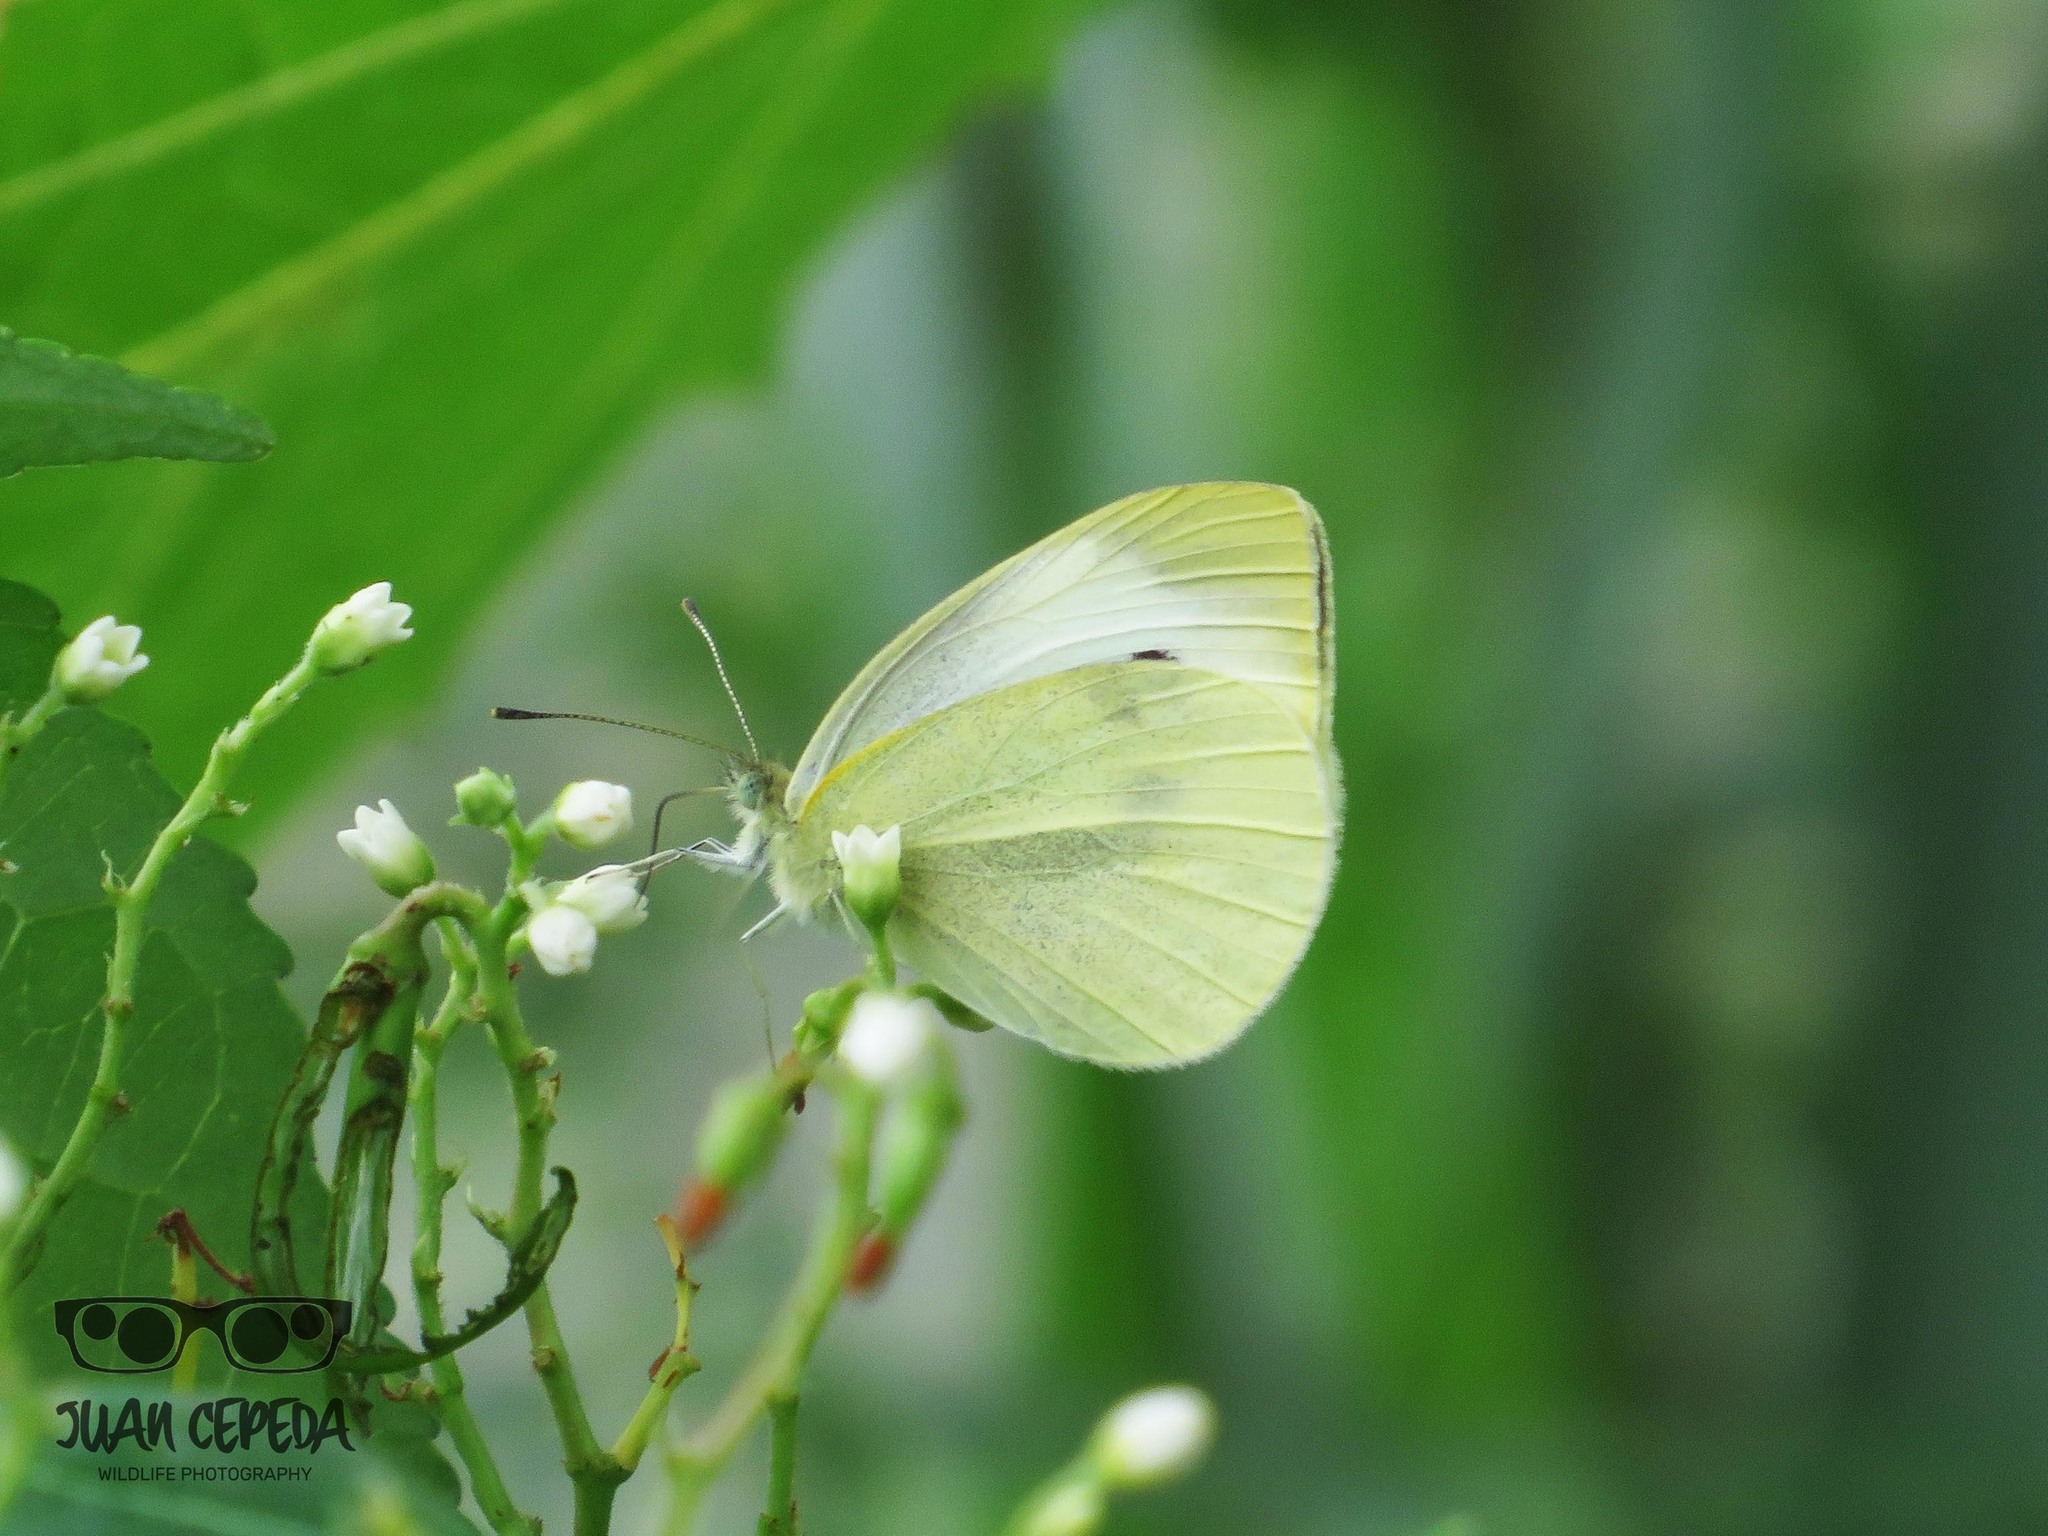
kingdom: Animalia
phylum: Arthropoda
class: Insecta
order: Lepidoptera
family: Pieridae
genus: Pieris
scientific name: Pieris rapae
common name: Small white
